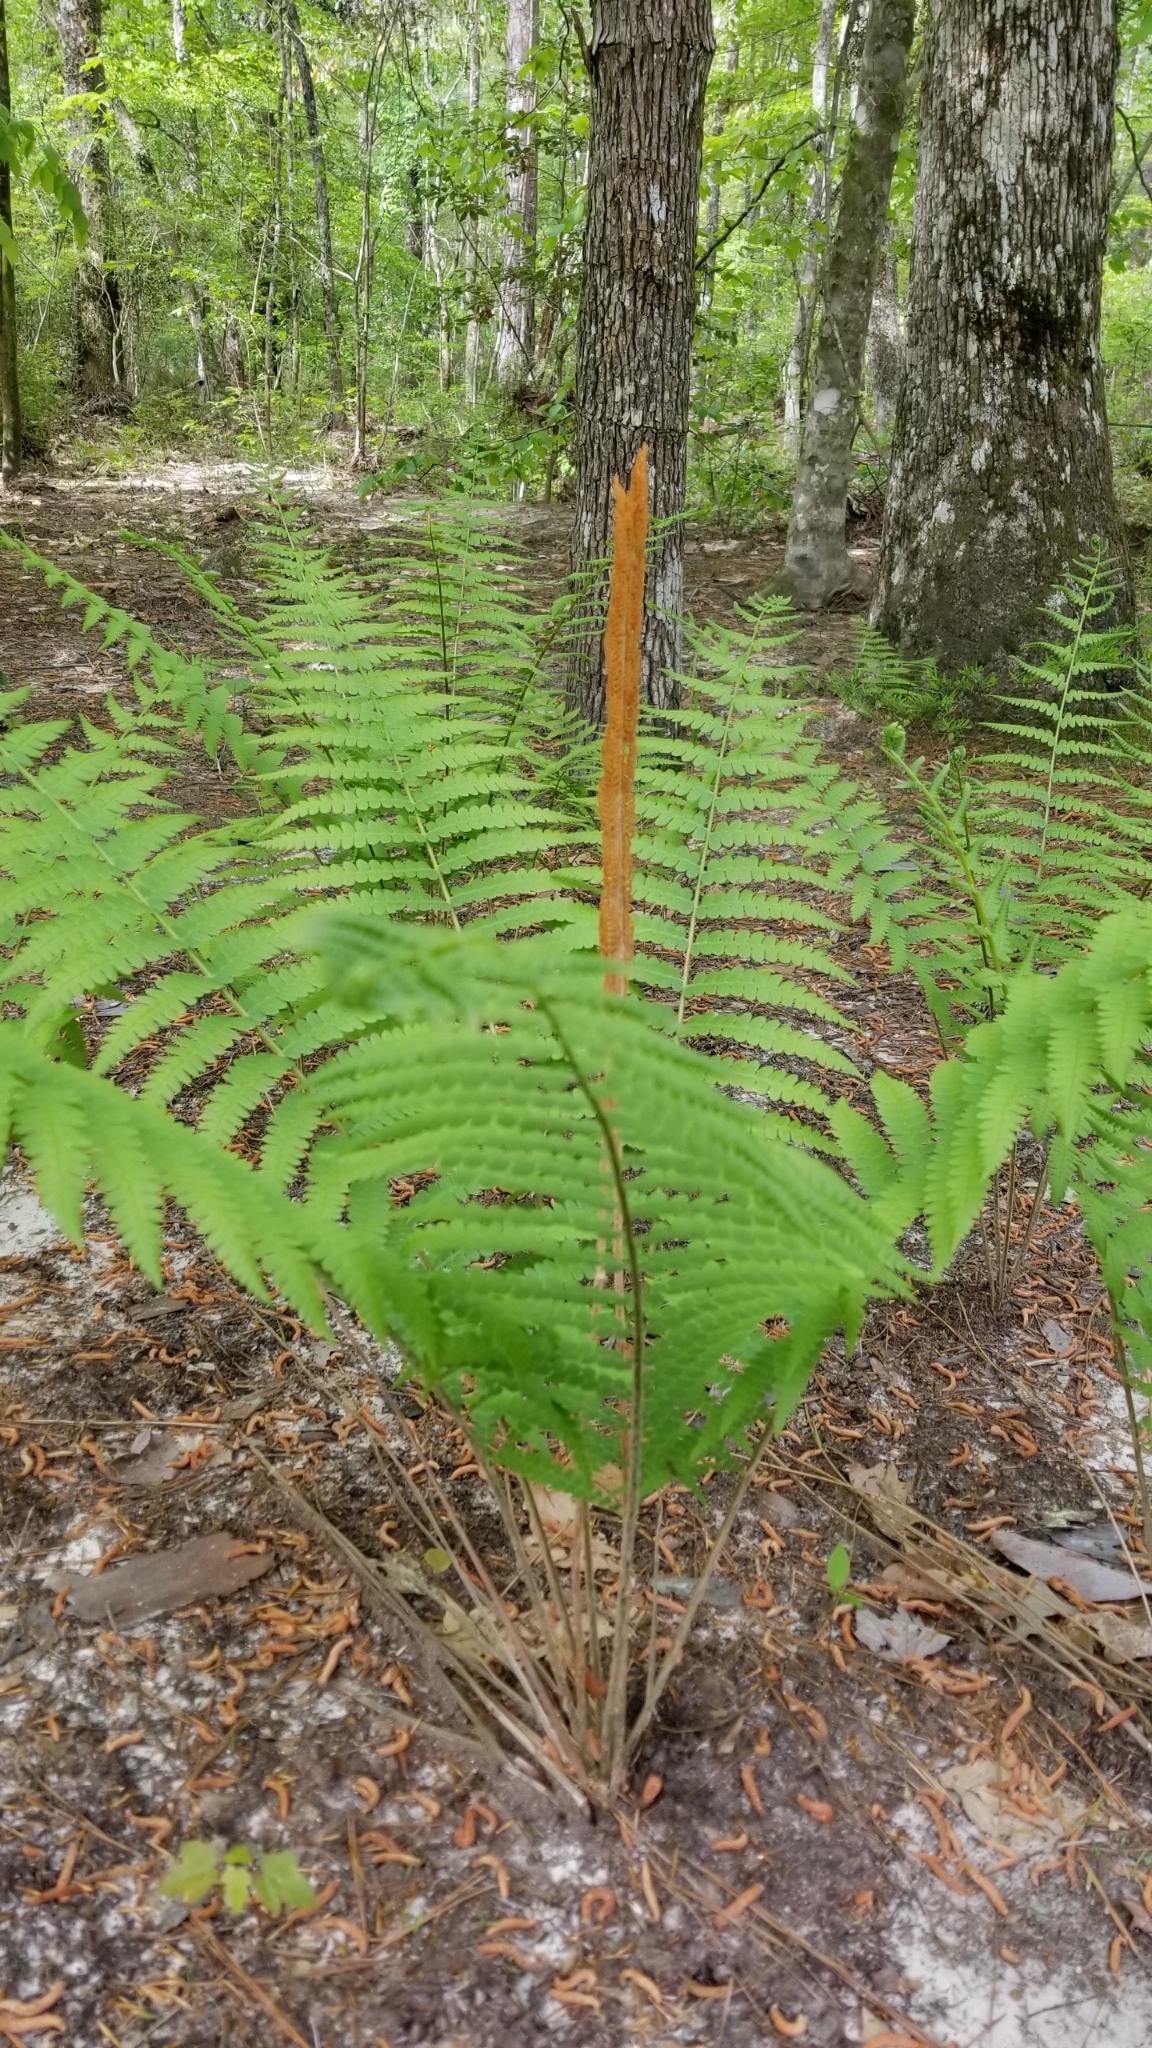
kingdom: Plantae
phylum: Tracheophyta
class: Polypodiopsida
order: Osmundales
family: Osmundaceae
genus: Osmundastrum
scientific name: Osmundastrum cinnamomeum
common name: Cinnamon fern
